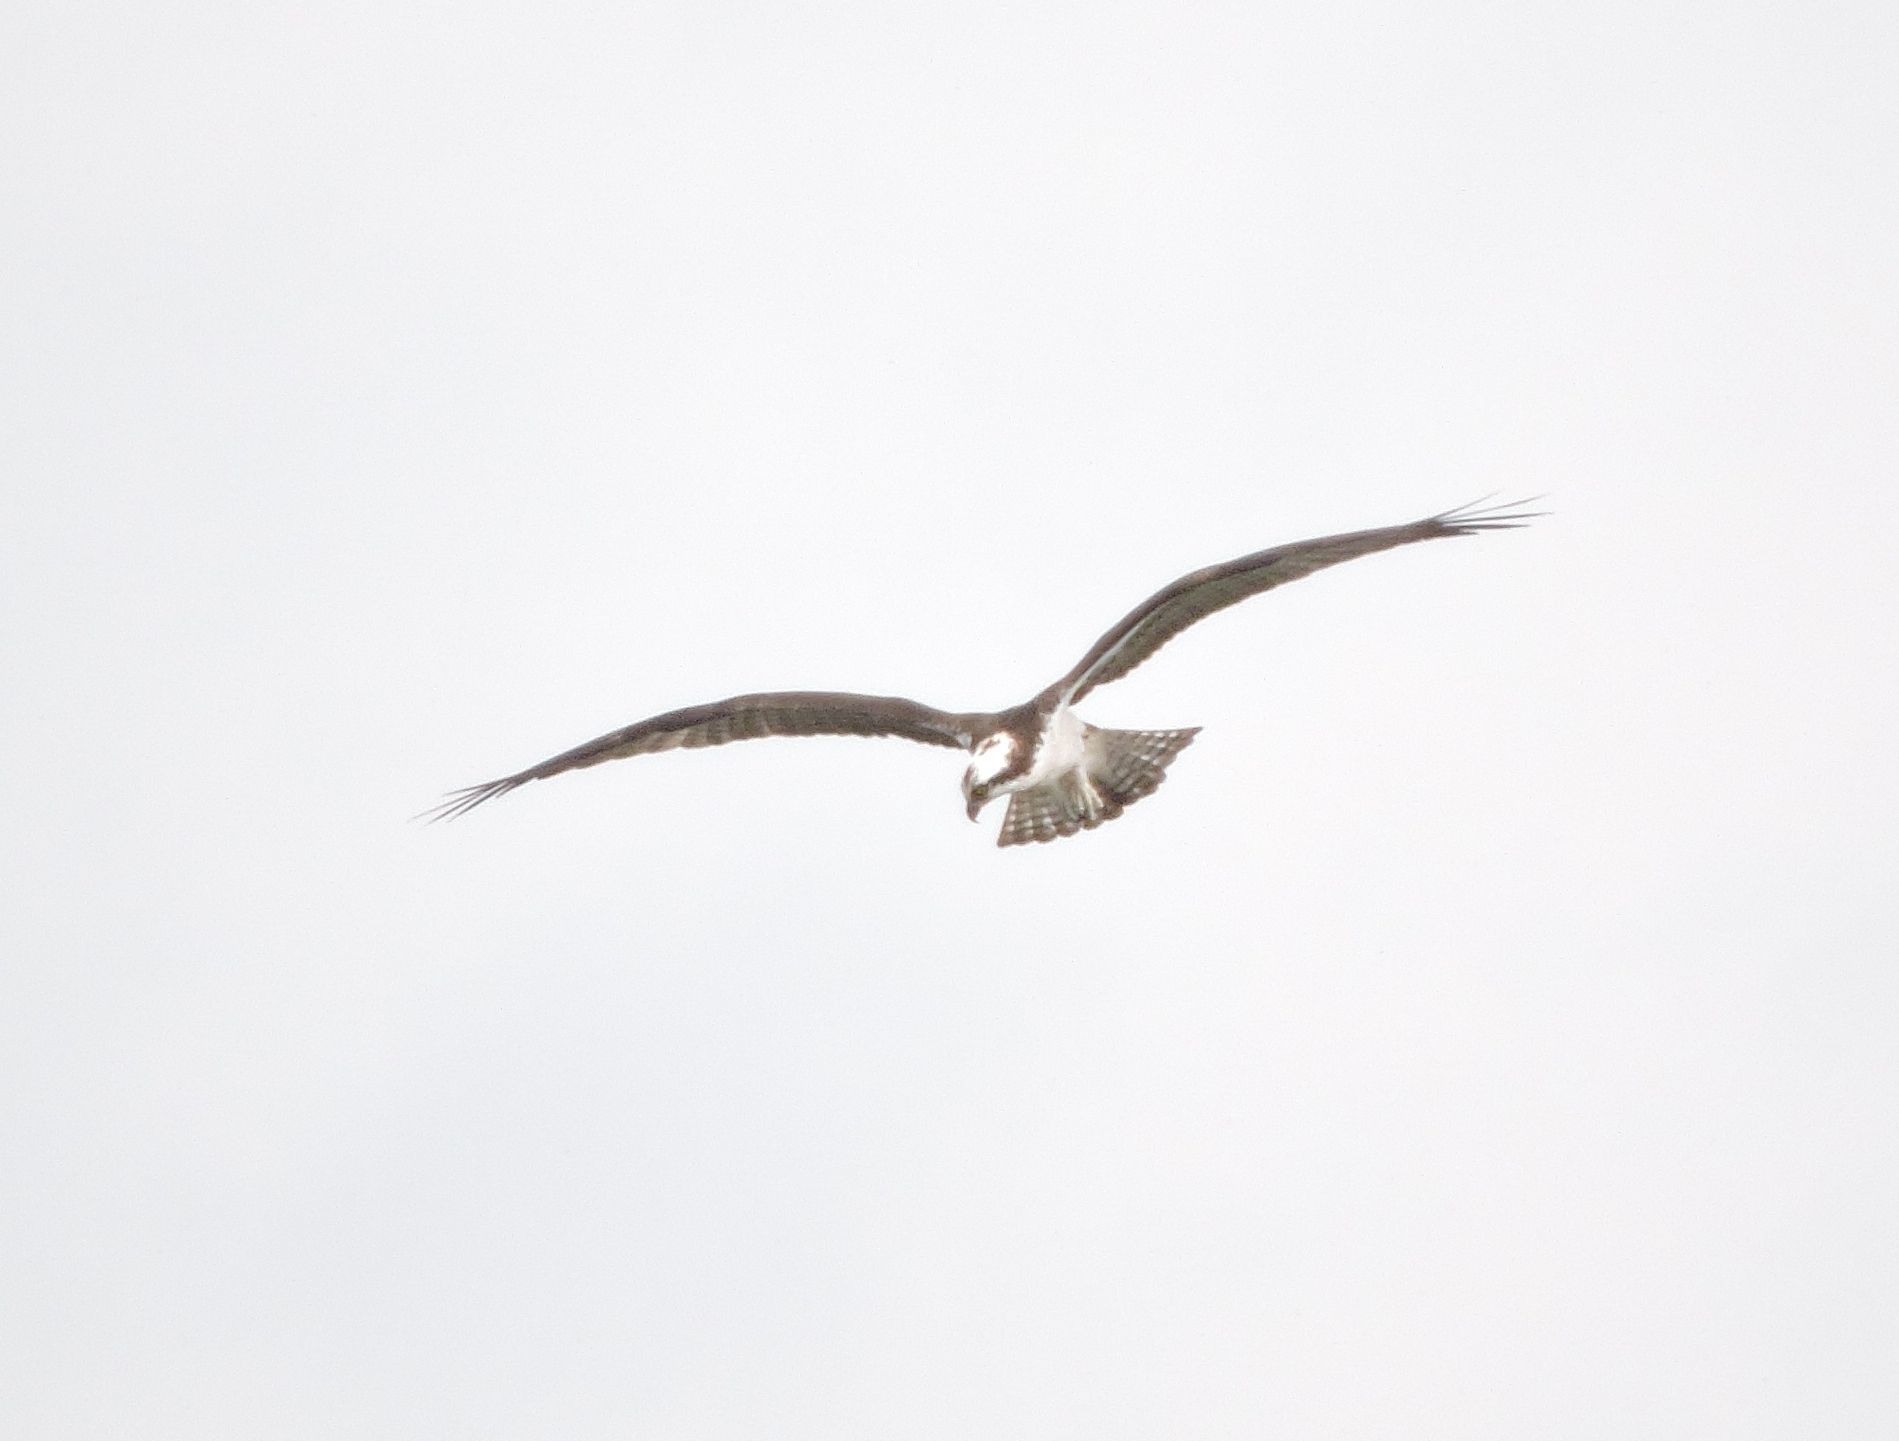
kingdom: Animalia
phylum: Chordata
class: Aves
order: Accipitriformes
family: Pandionidae
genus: Pandion
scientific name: Pandion haliaetus
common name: Osprey
